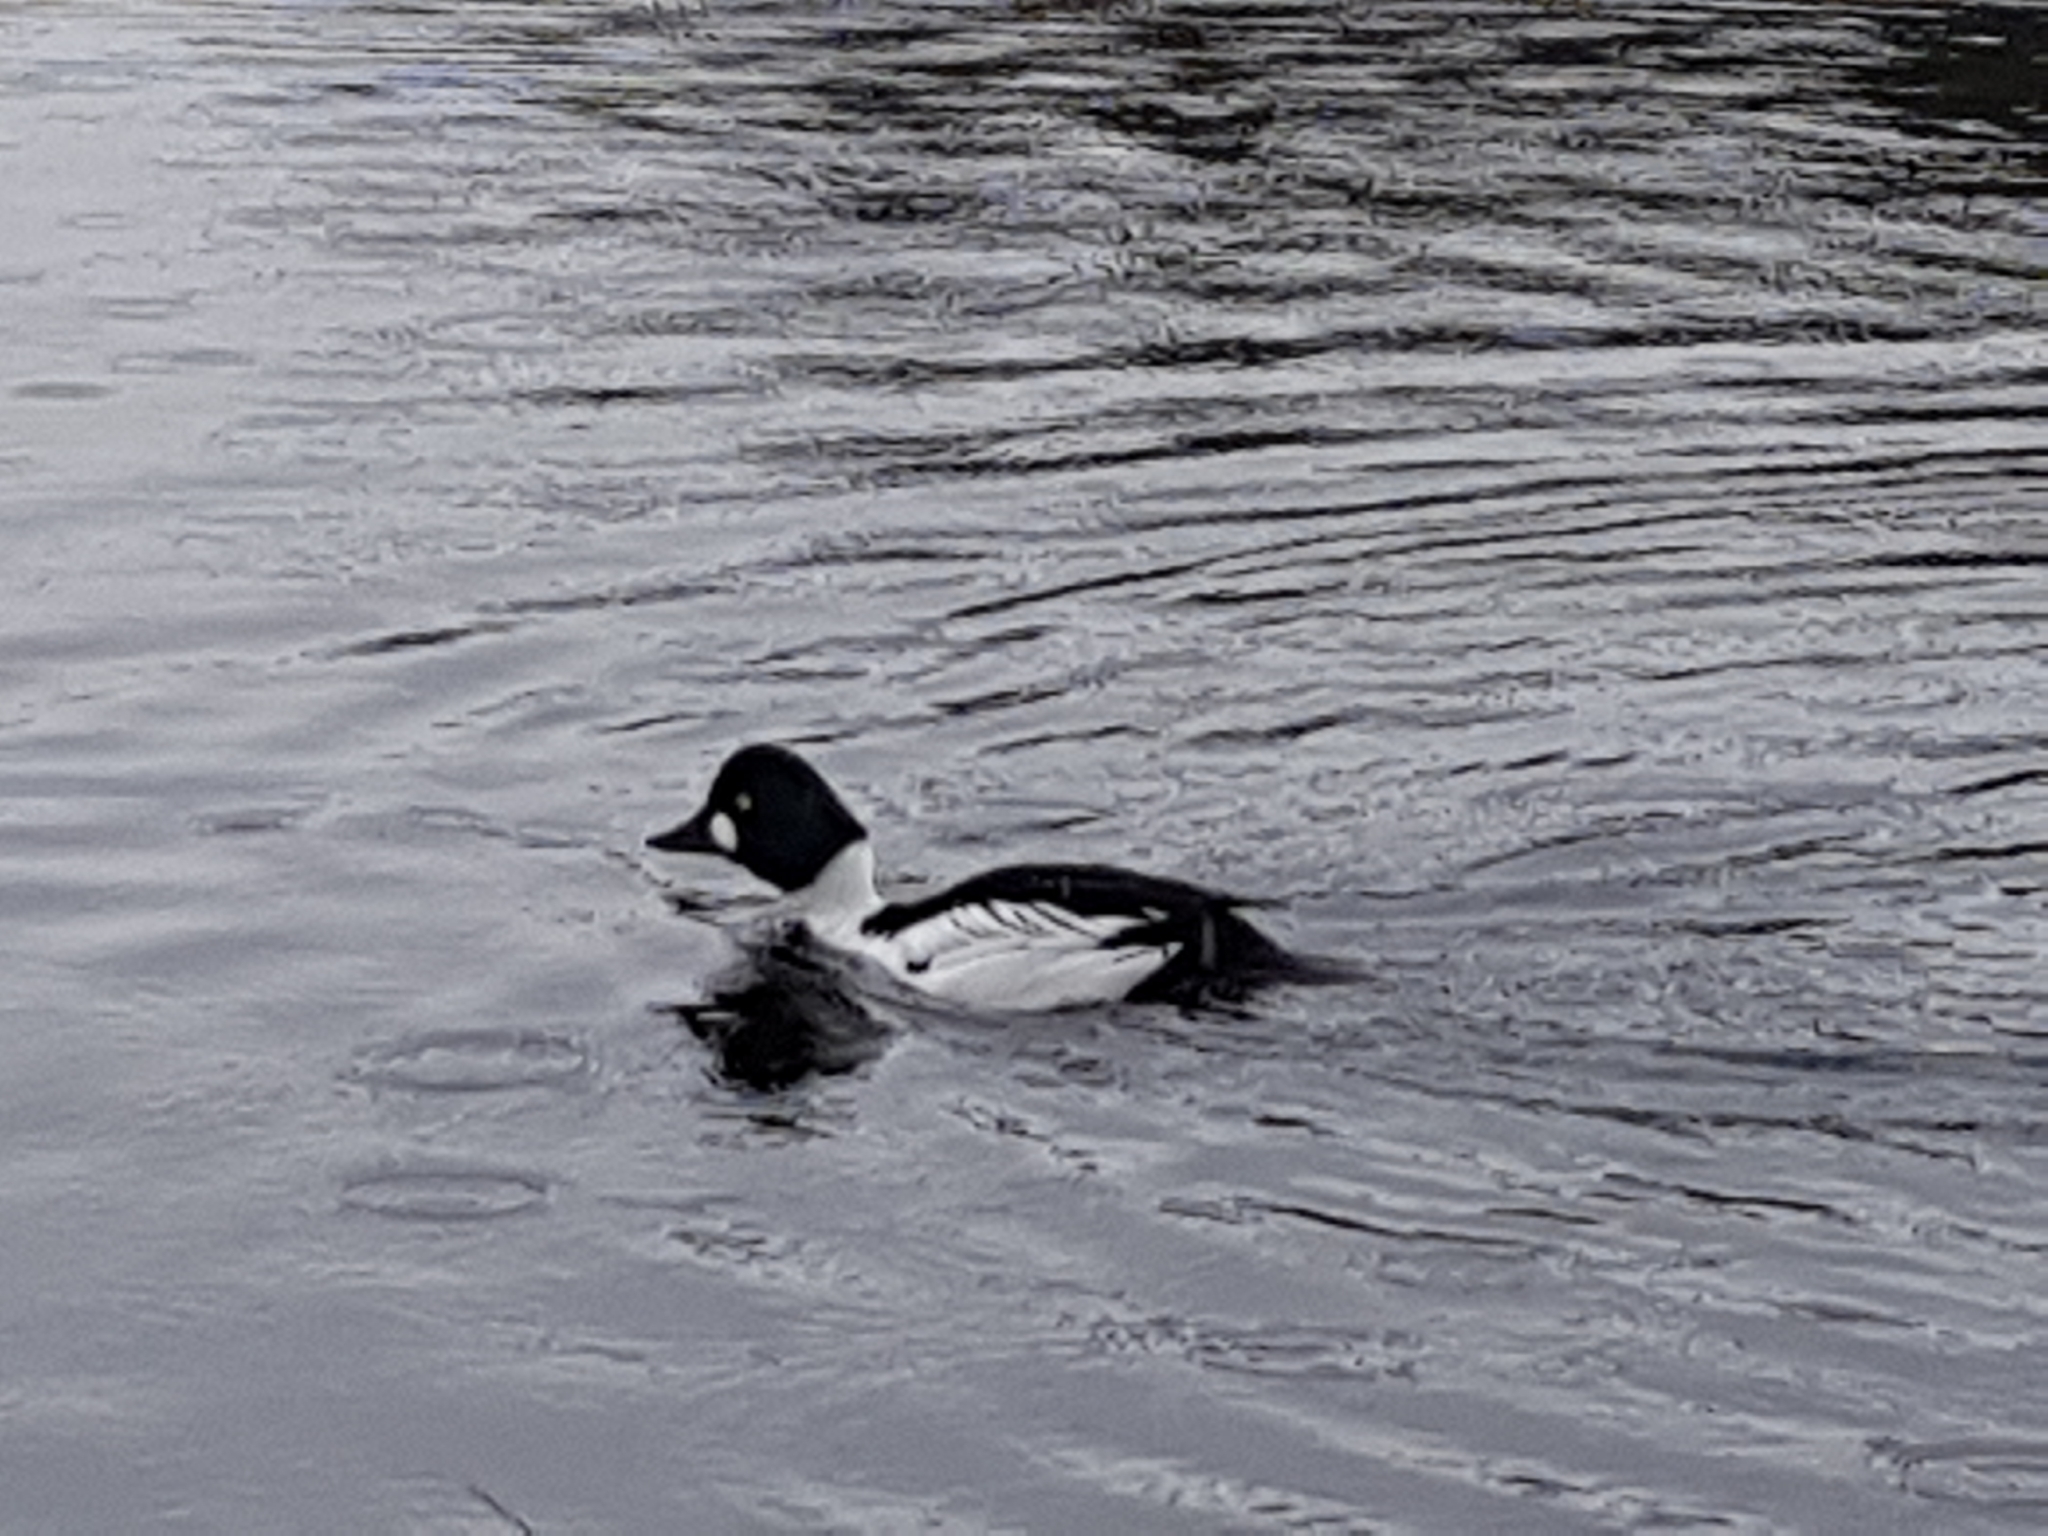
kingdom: Animalia
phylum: Chordata
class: Aves
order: Anseriformes
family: Anatidae
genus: Bucephala
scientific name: Bucephala clangula
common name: Common goldeneye
